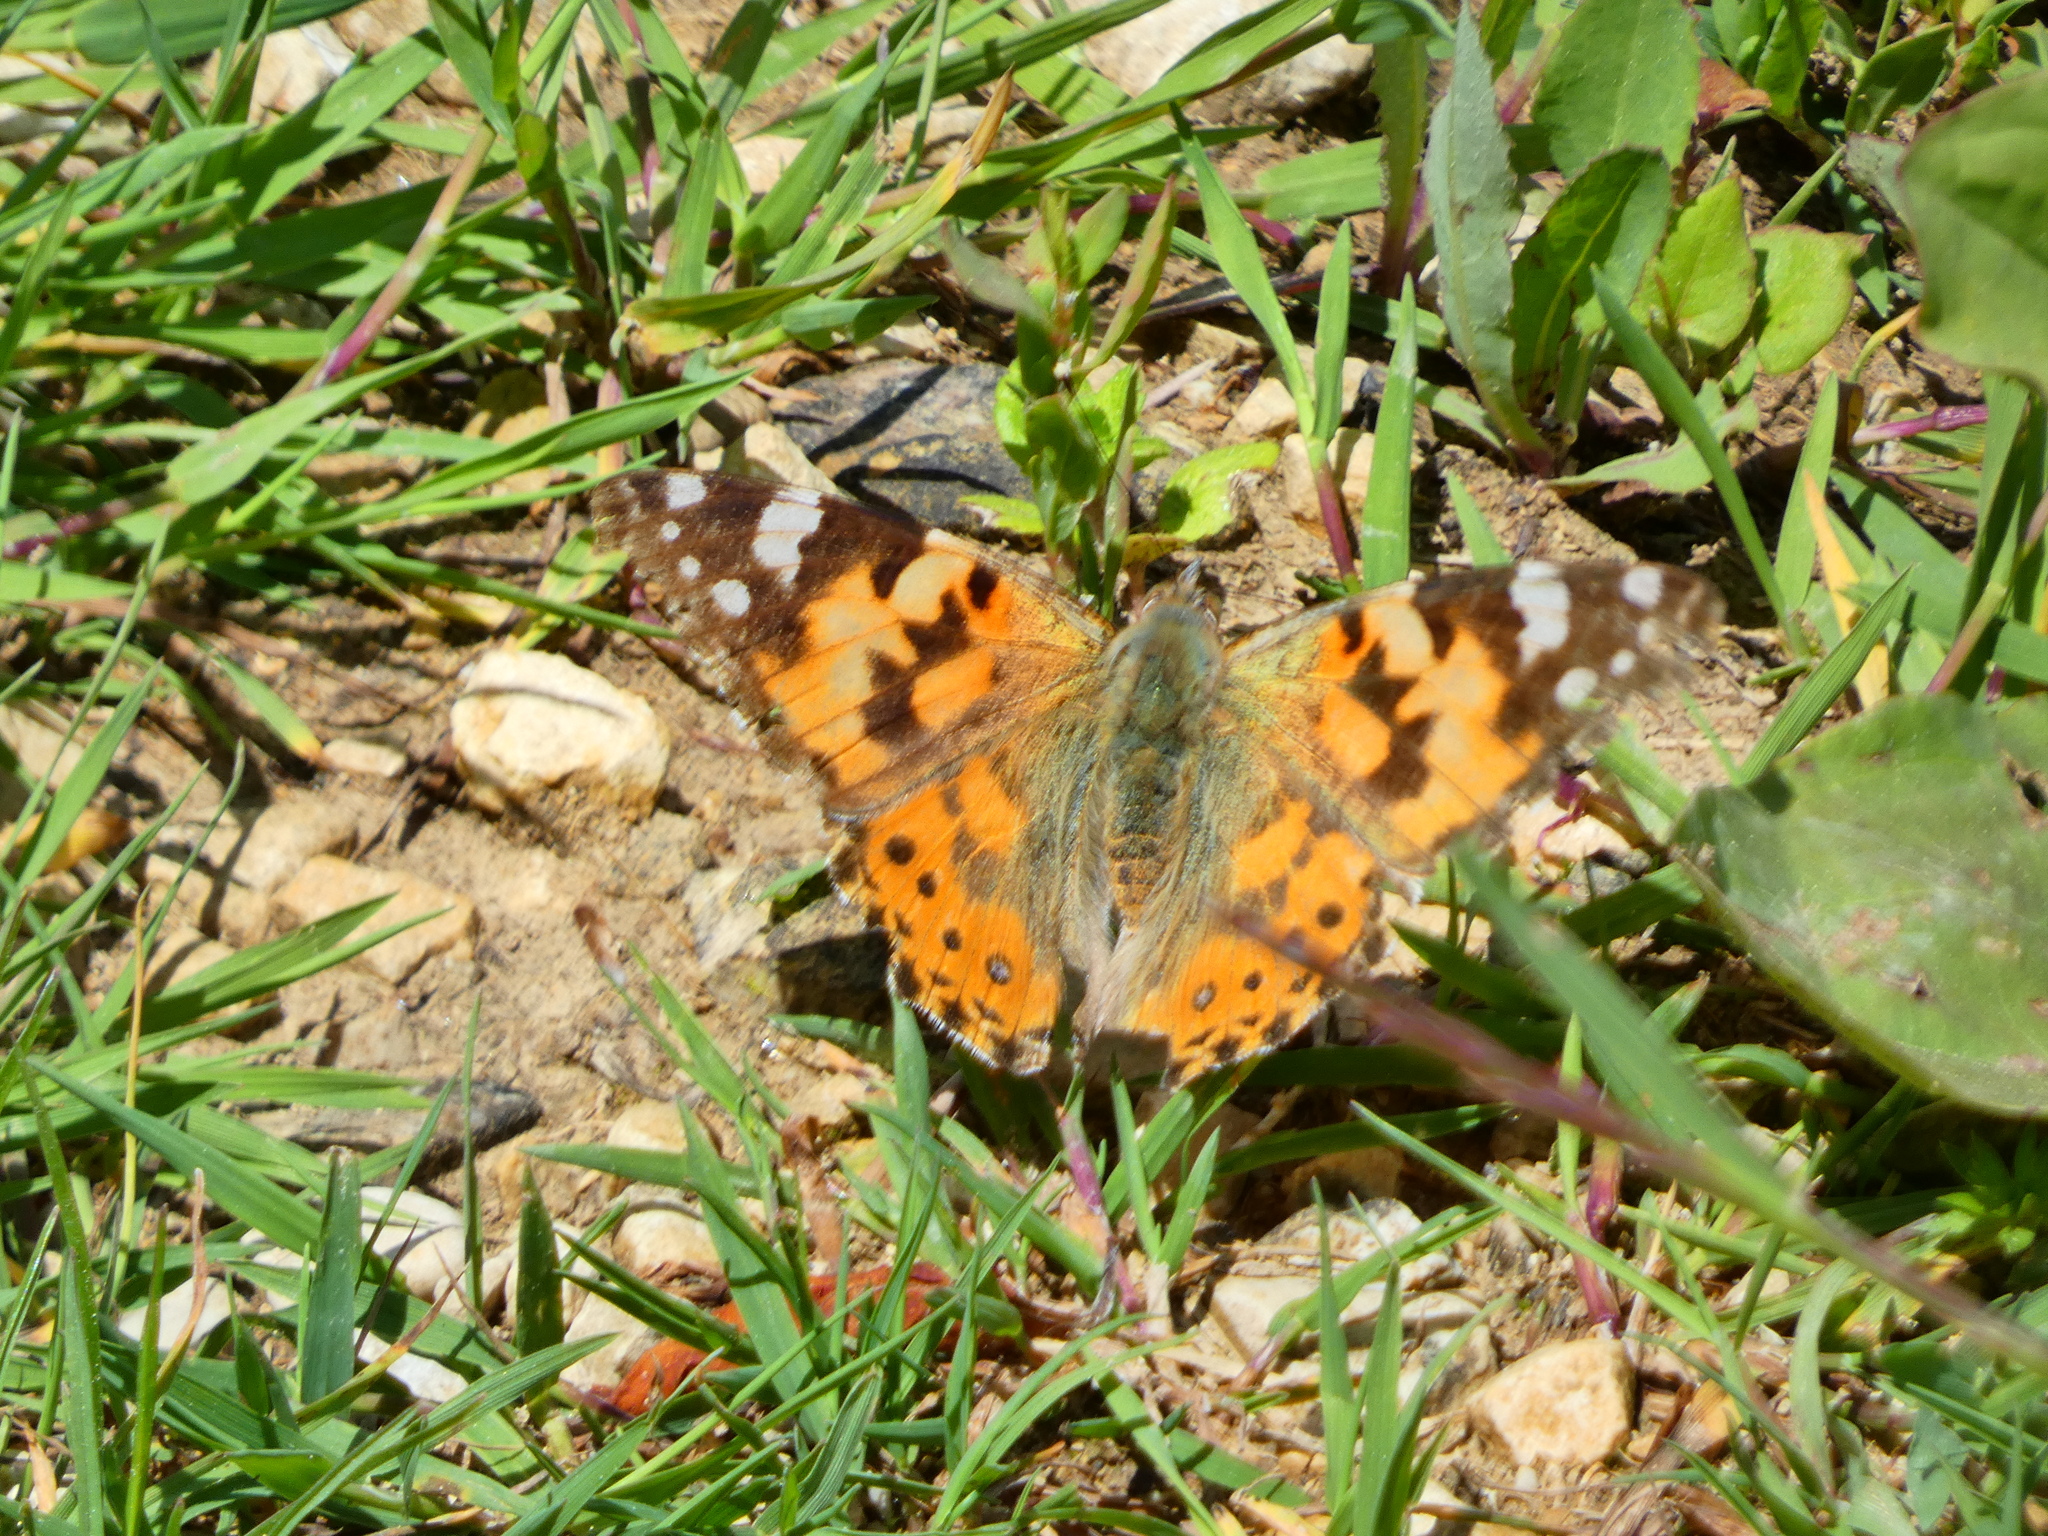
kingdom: Animalia
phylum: Arthropoda
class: Insecta
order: Lepidoptera
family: Nymphalidae
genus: Vanessa
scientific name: Vanessa cardui
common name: Painted lady
